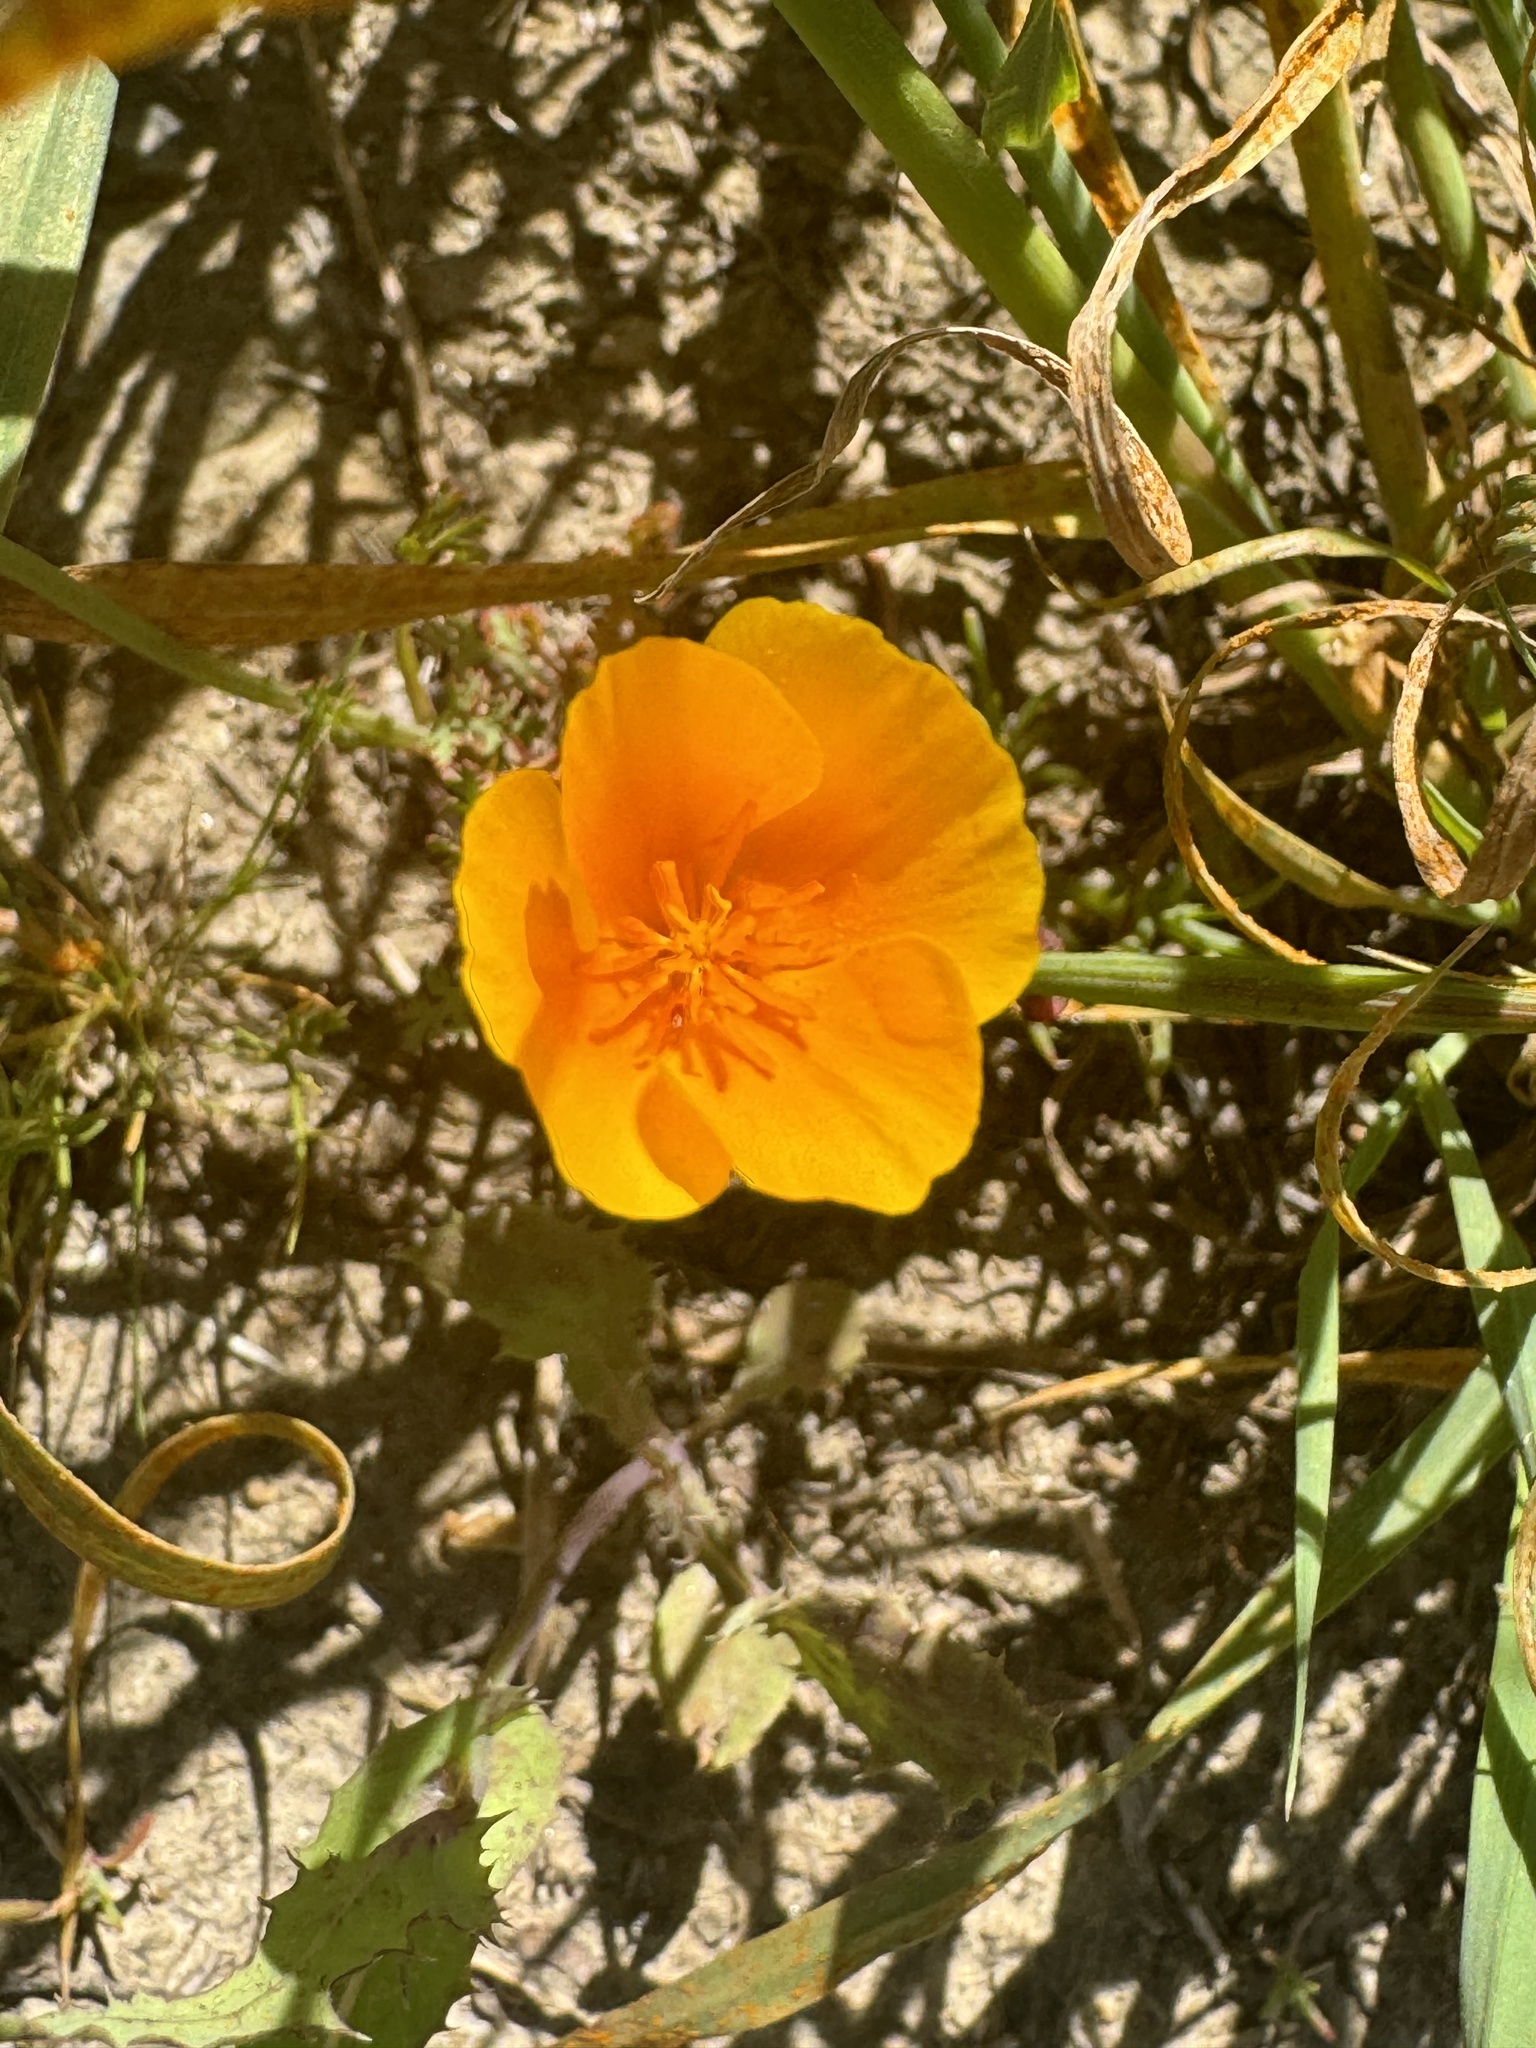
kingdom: Plantae
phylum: Tracheophyta
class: Magnoliopsida
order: Ranunculales
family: Papaveraceae
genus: Eschscholzia
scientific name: Eschscholzia californica
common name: California poppy
